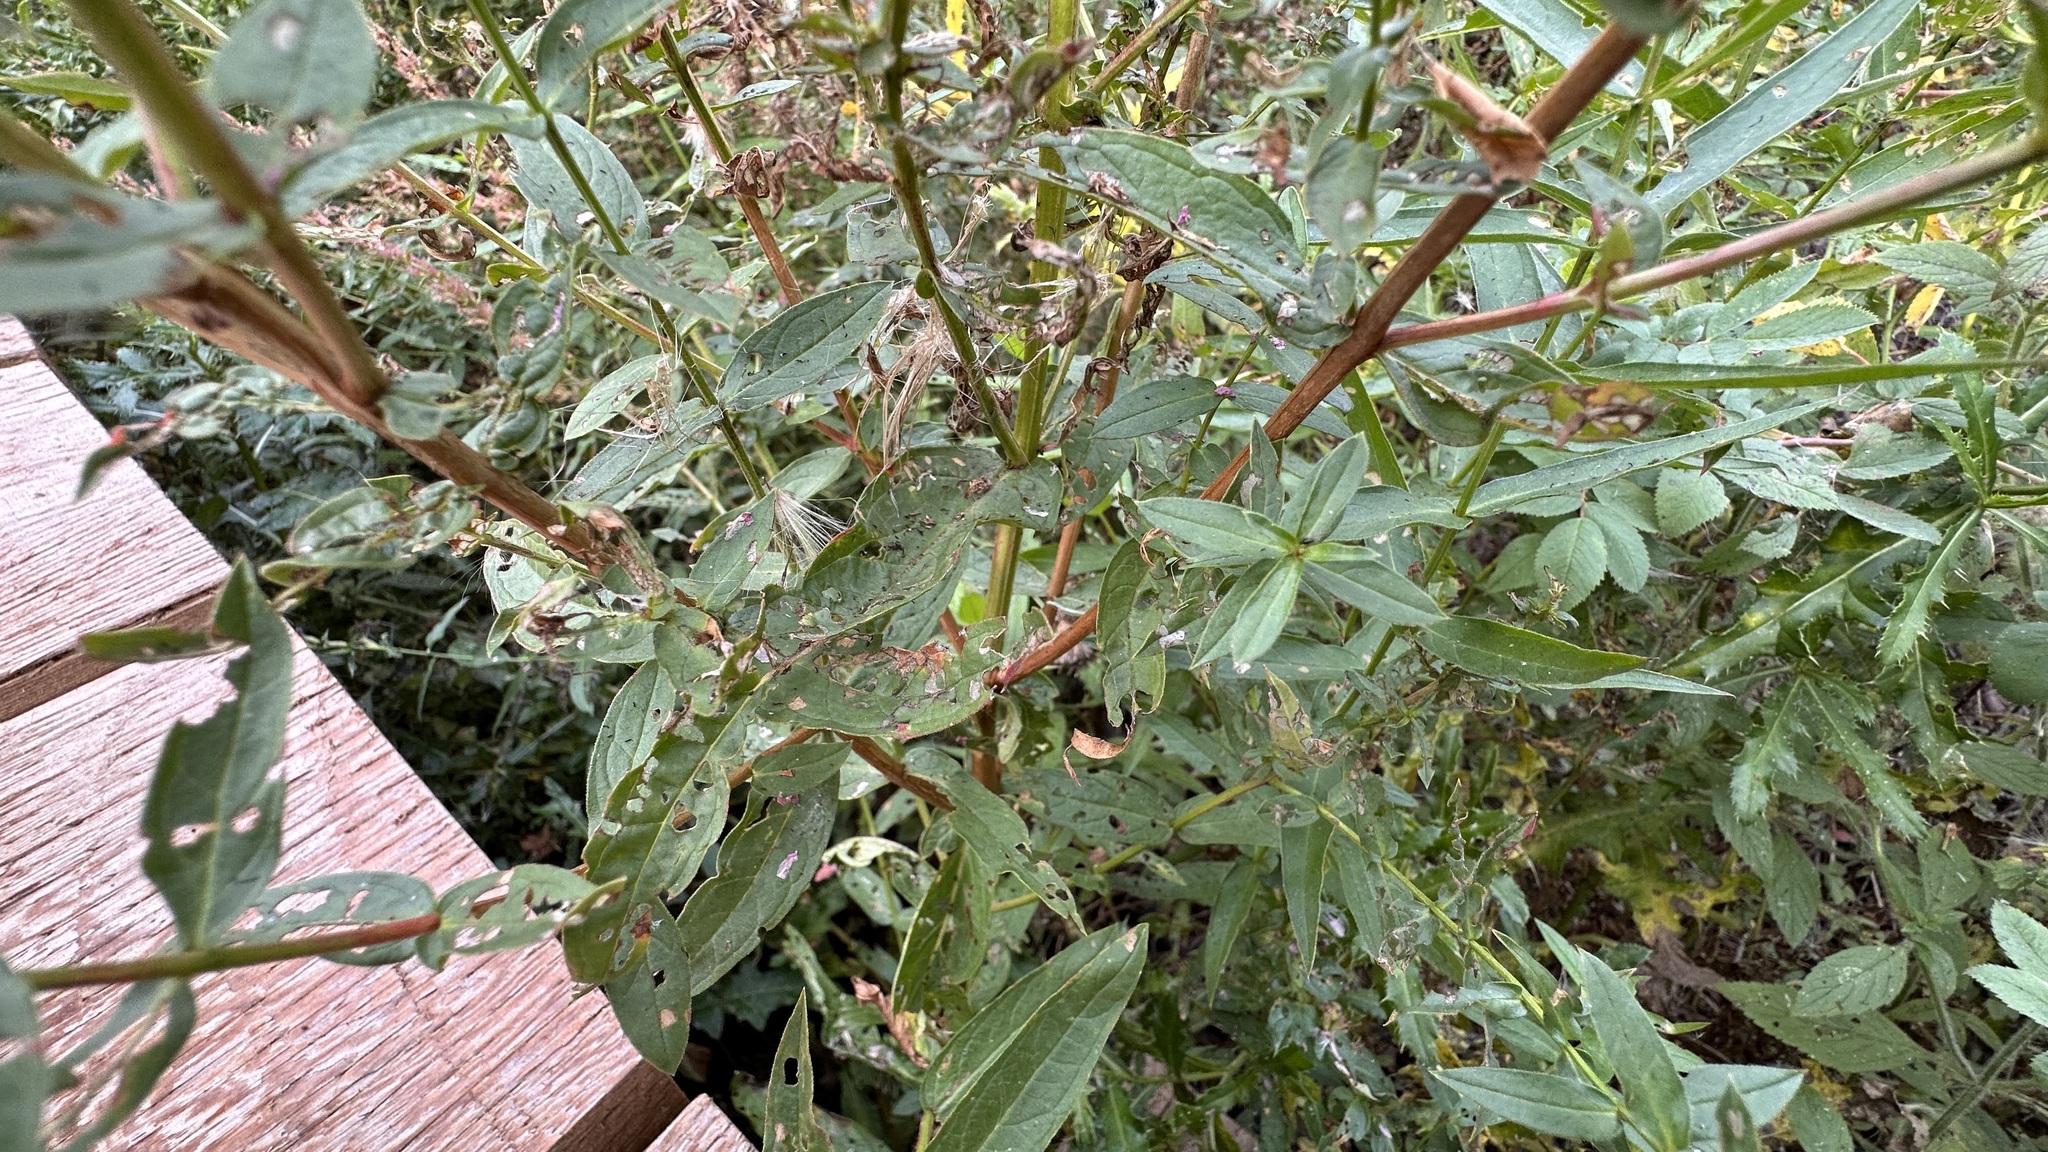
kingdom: Plantae
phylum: Tracheophyta
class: Magnoliopsida
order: Myrtales
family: Lythraceae
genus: Lythrum
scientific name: Lythrum salicaria
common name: Purple loosestrife
